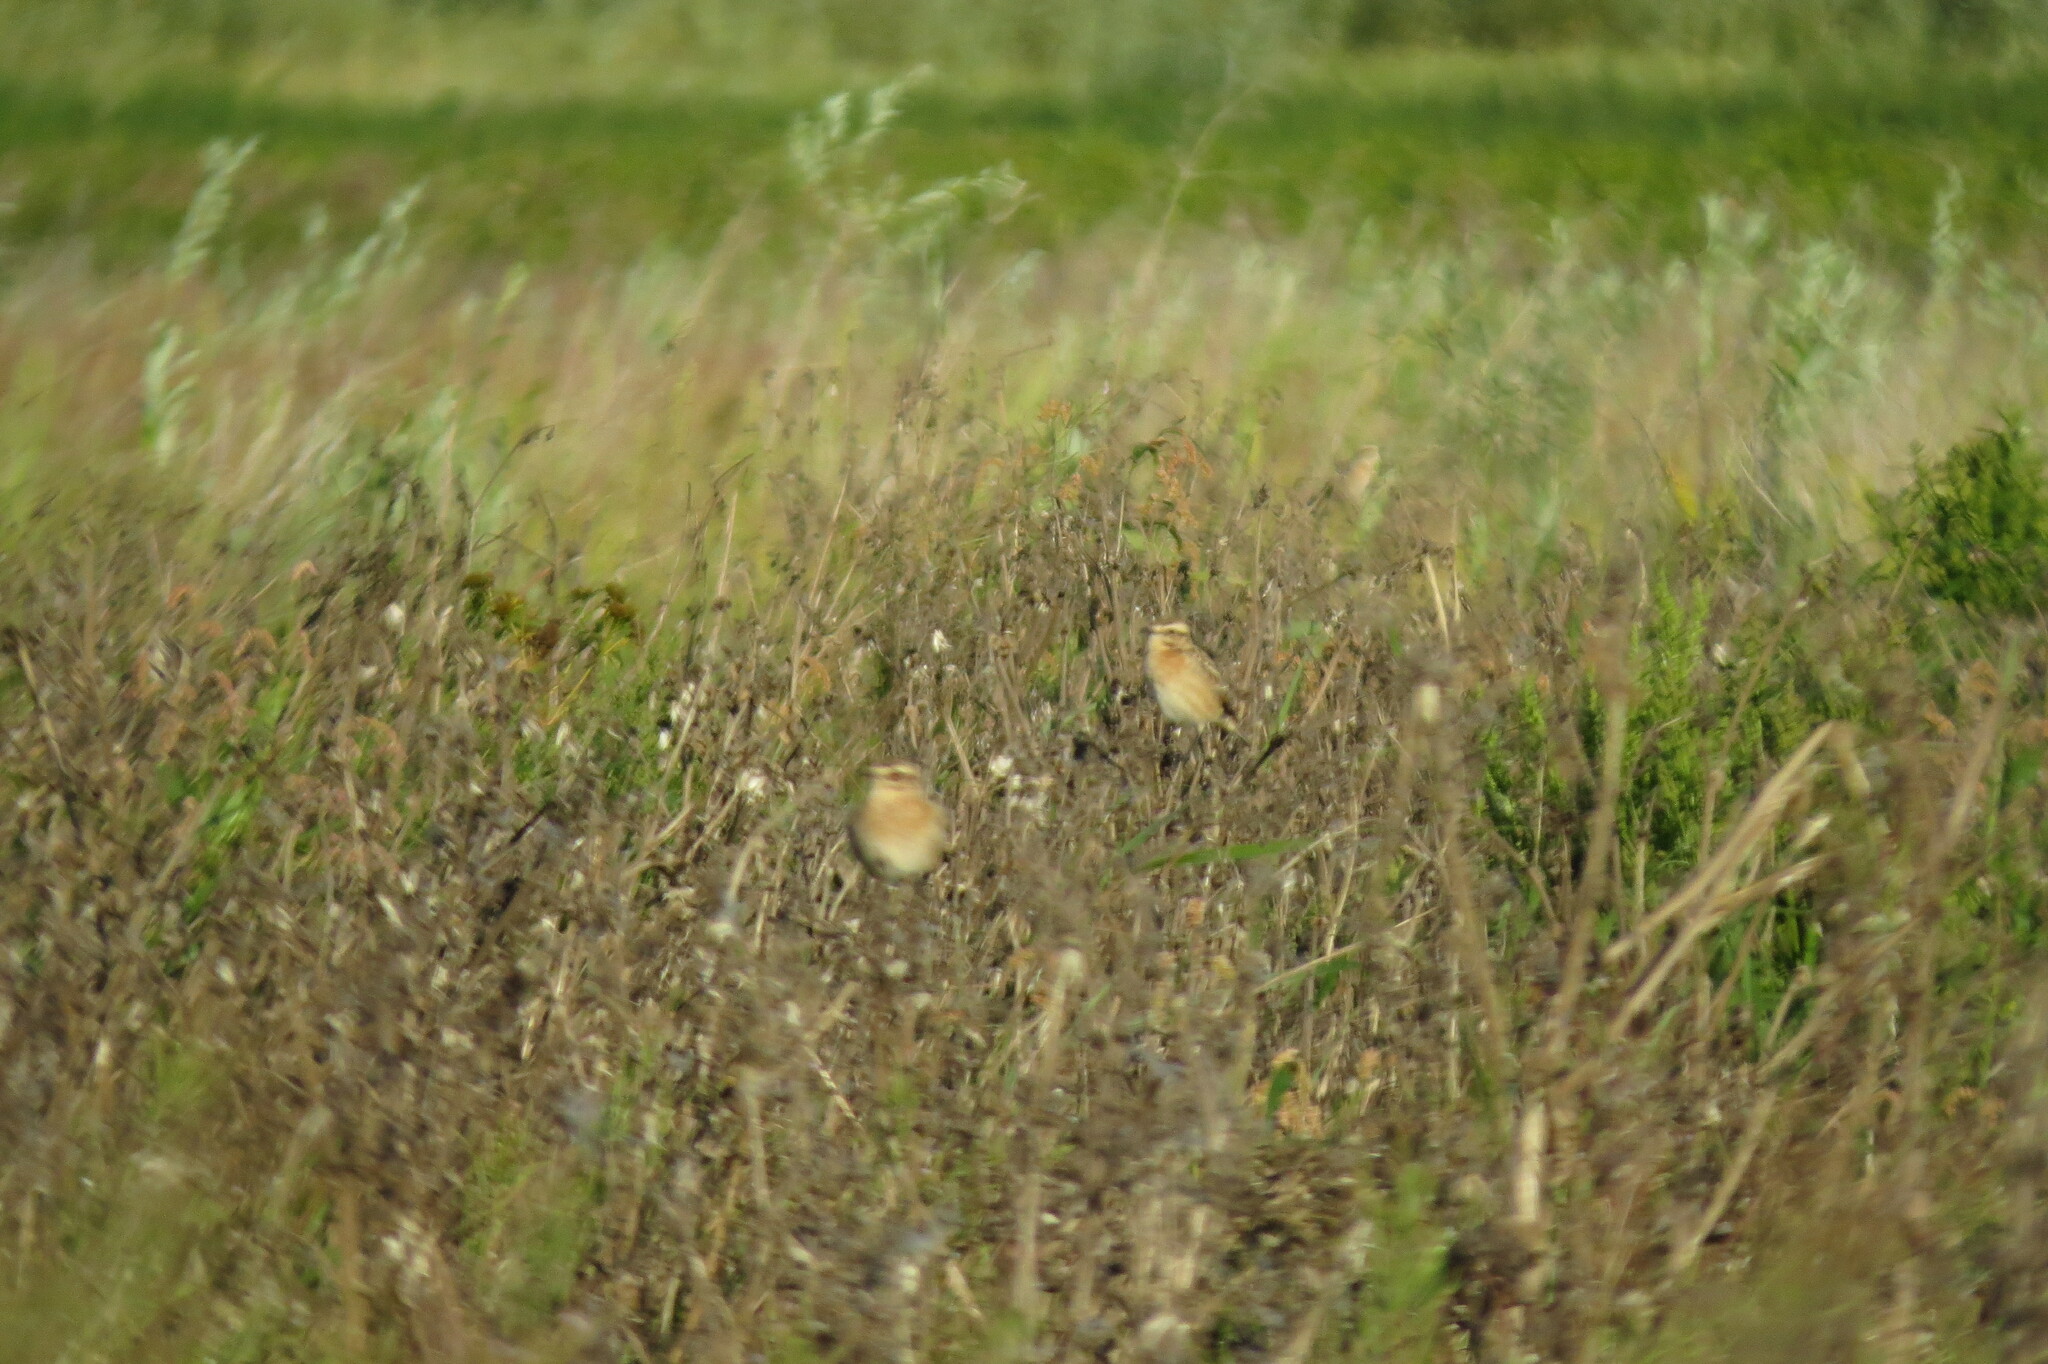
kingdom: Animalia
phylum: Chordata
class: Aves
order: Passeriformes
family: Muscicapidae
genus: Saxicola
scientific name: Saxicola rubetra
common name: Whinchat
